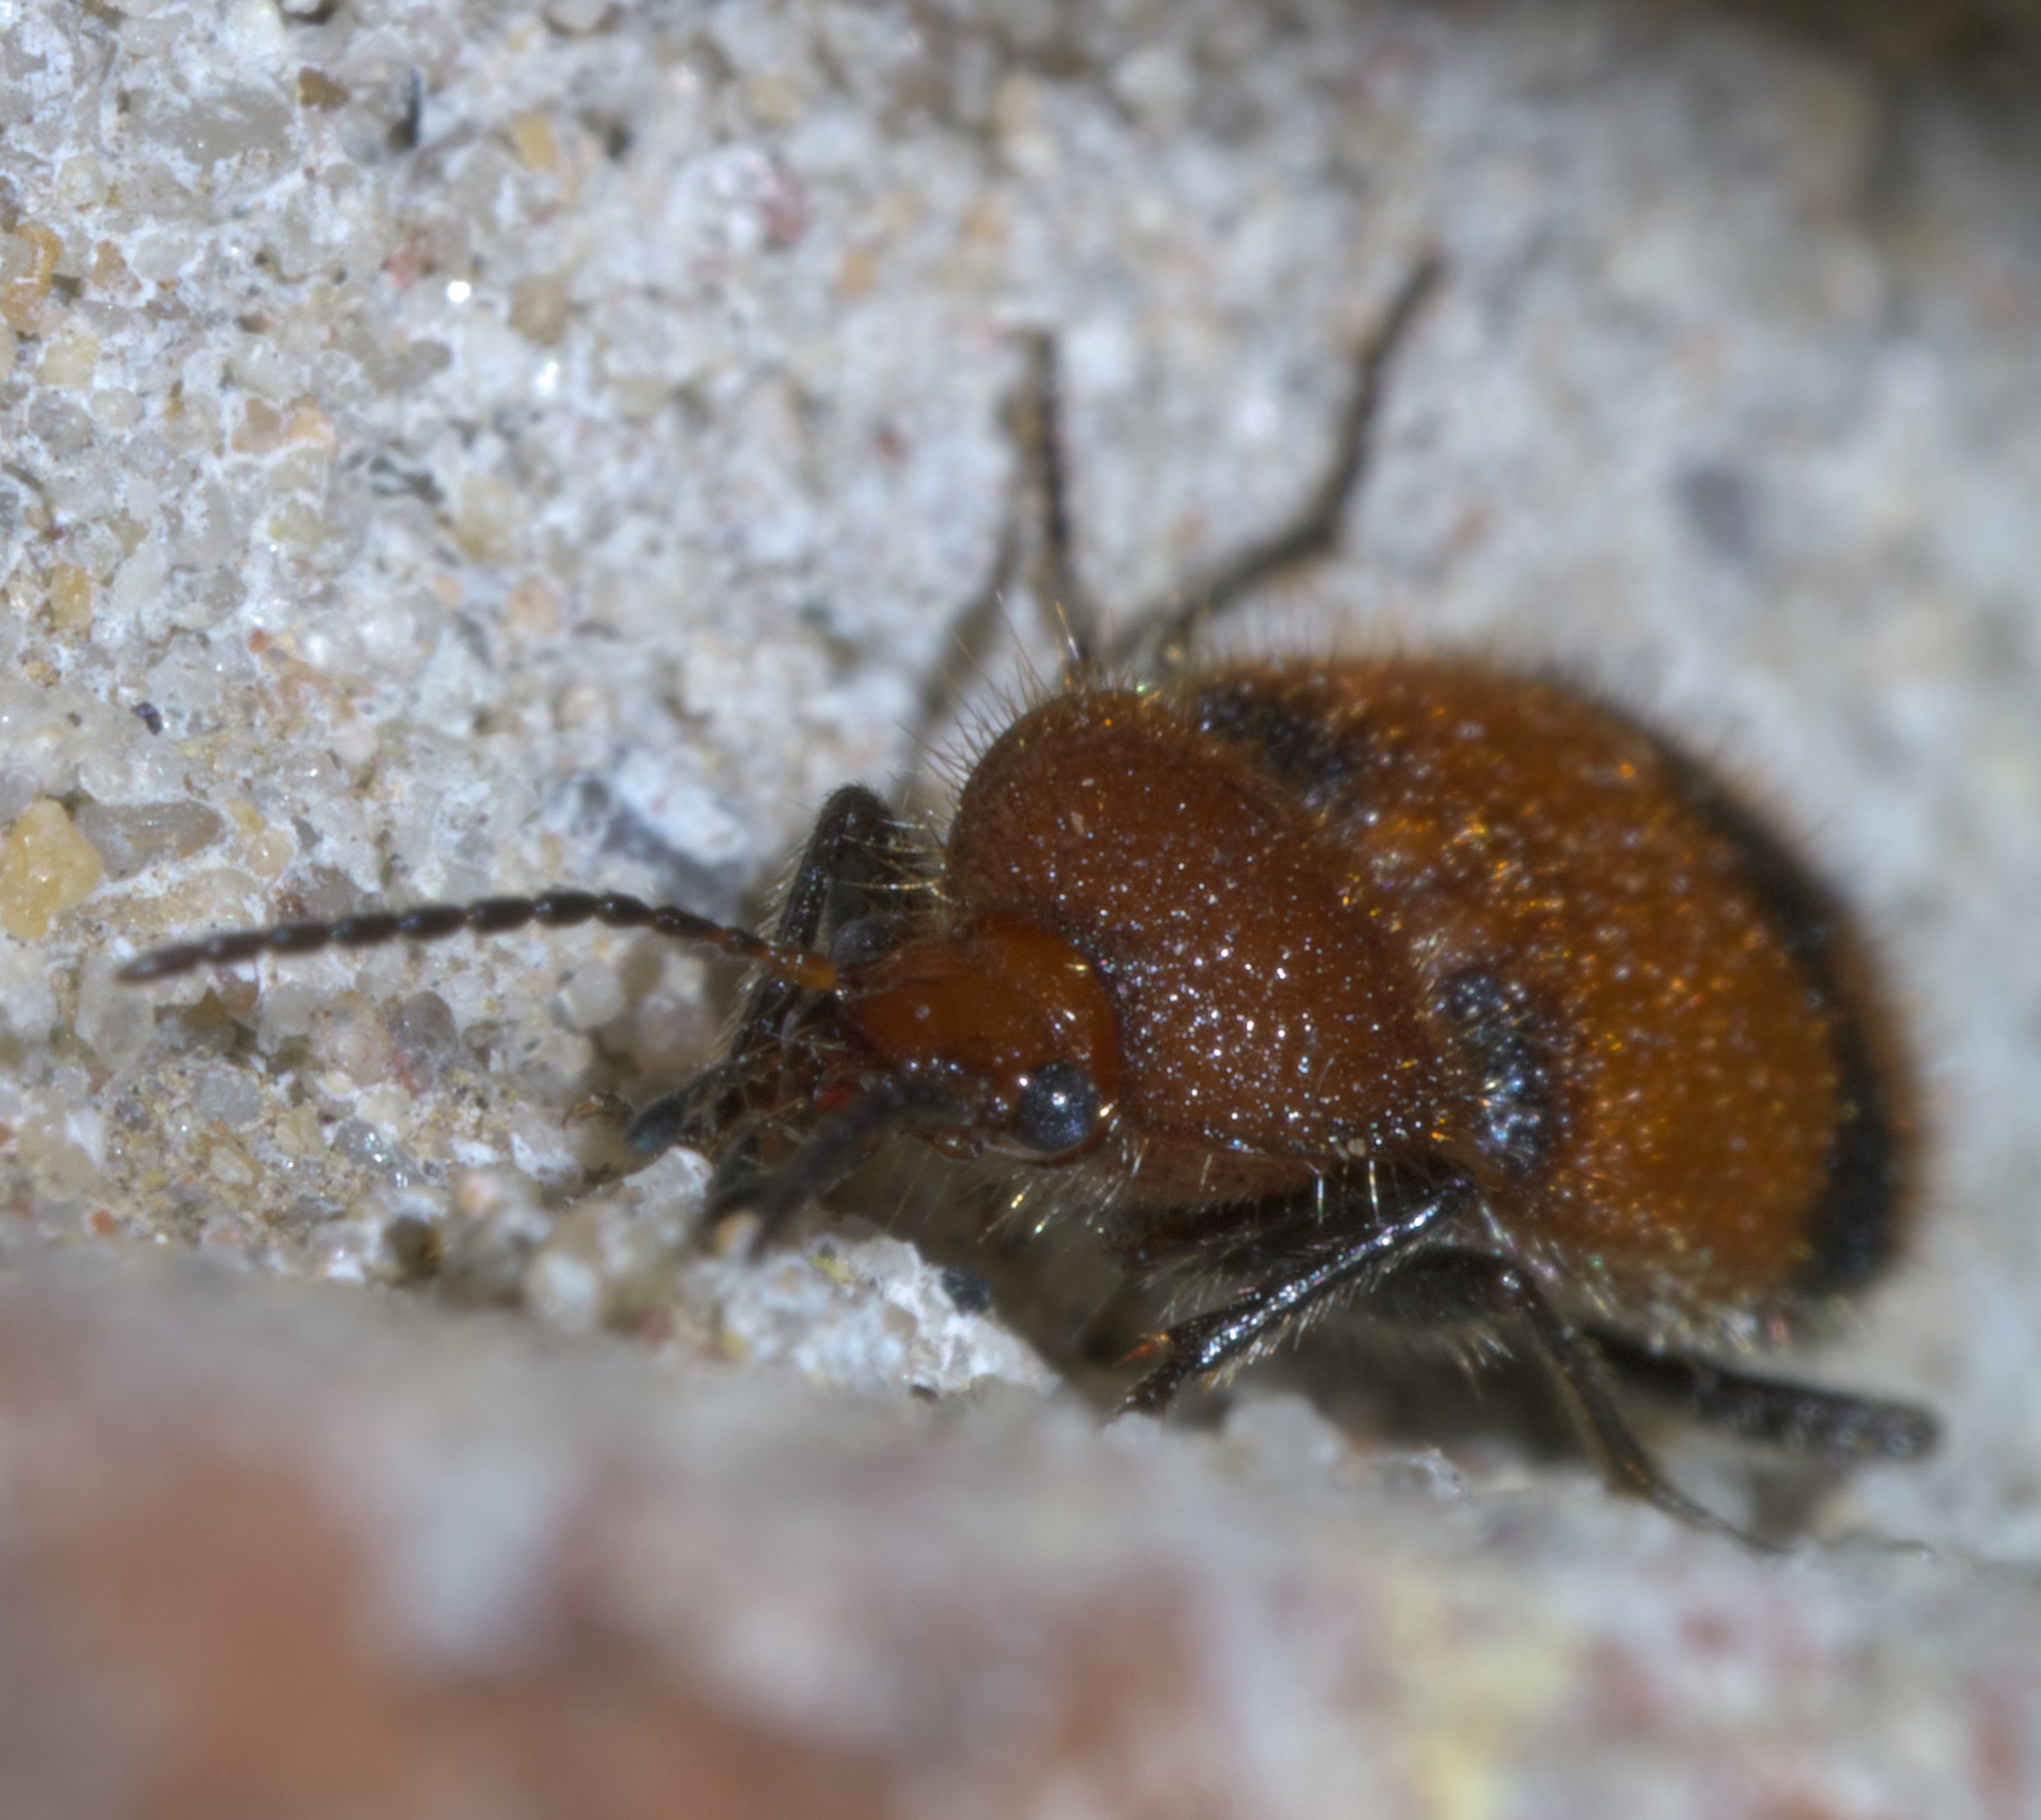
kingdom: Animalia
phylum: Arthropoda
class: Insecta
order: Coleoptera
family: Carabidae
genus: Panagaeus
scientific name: Panagaeus fasciatus
